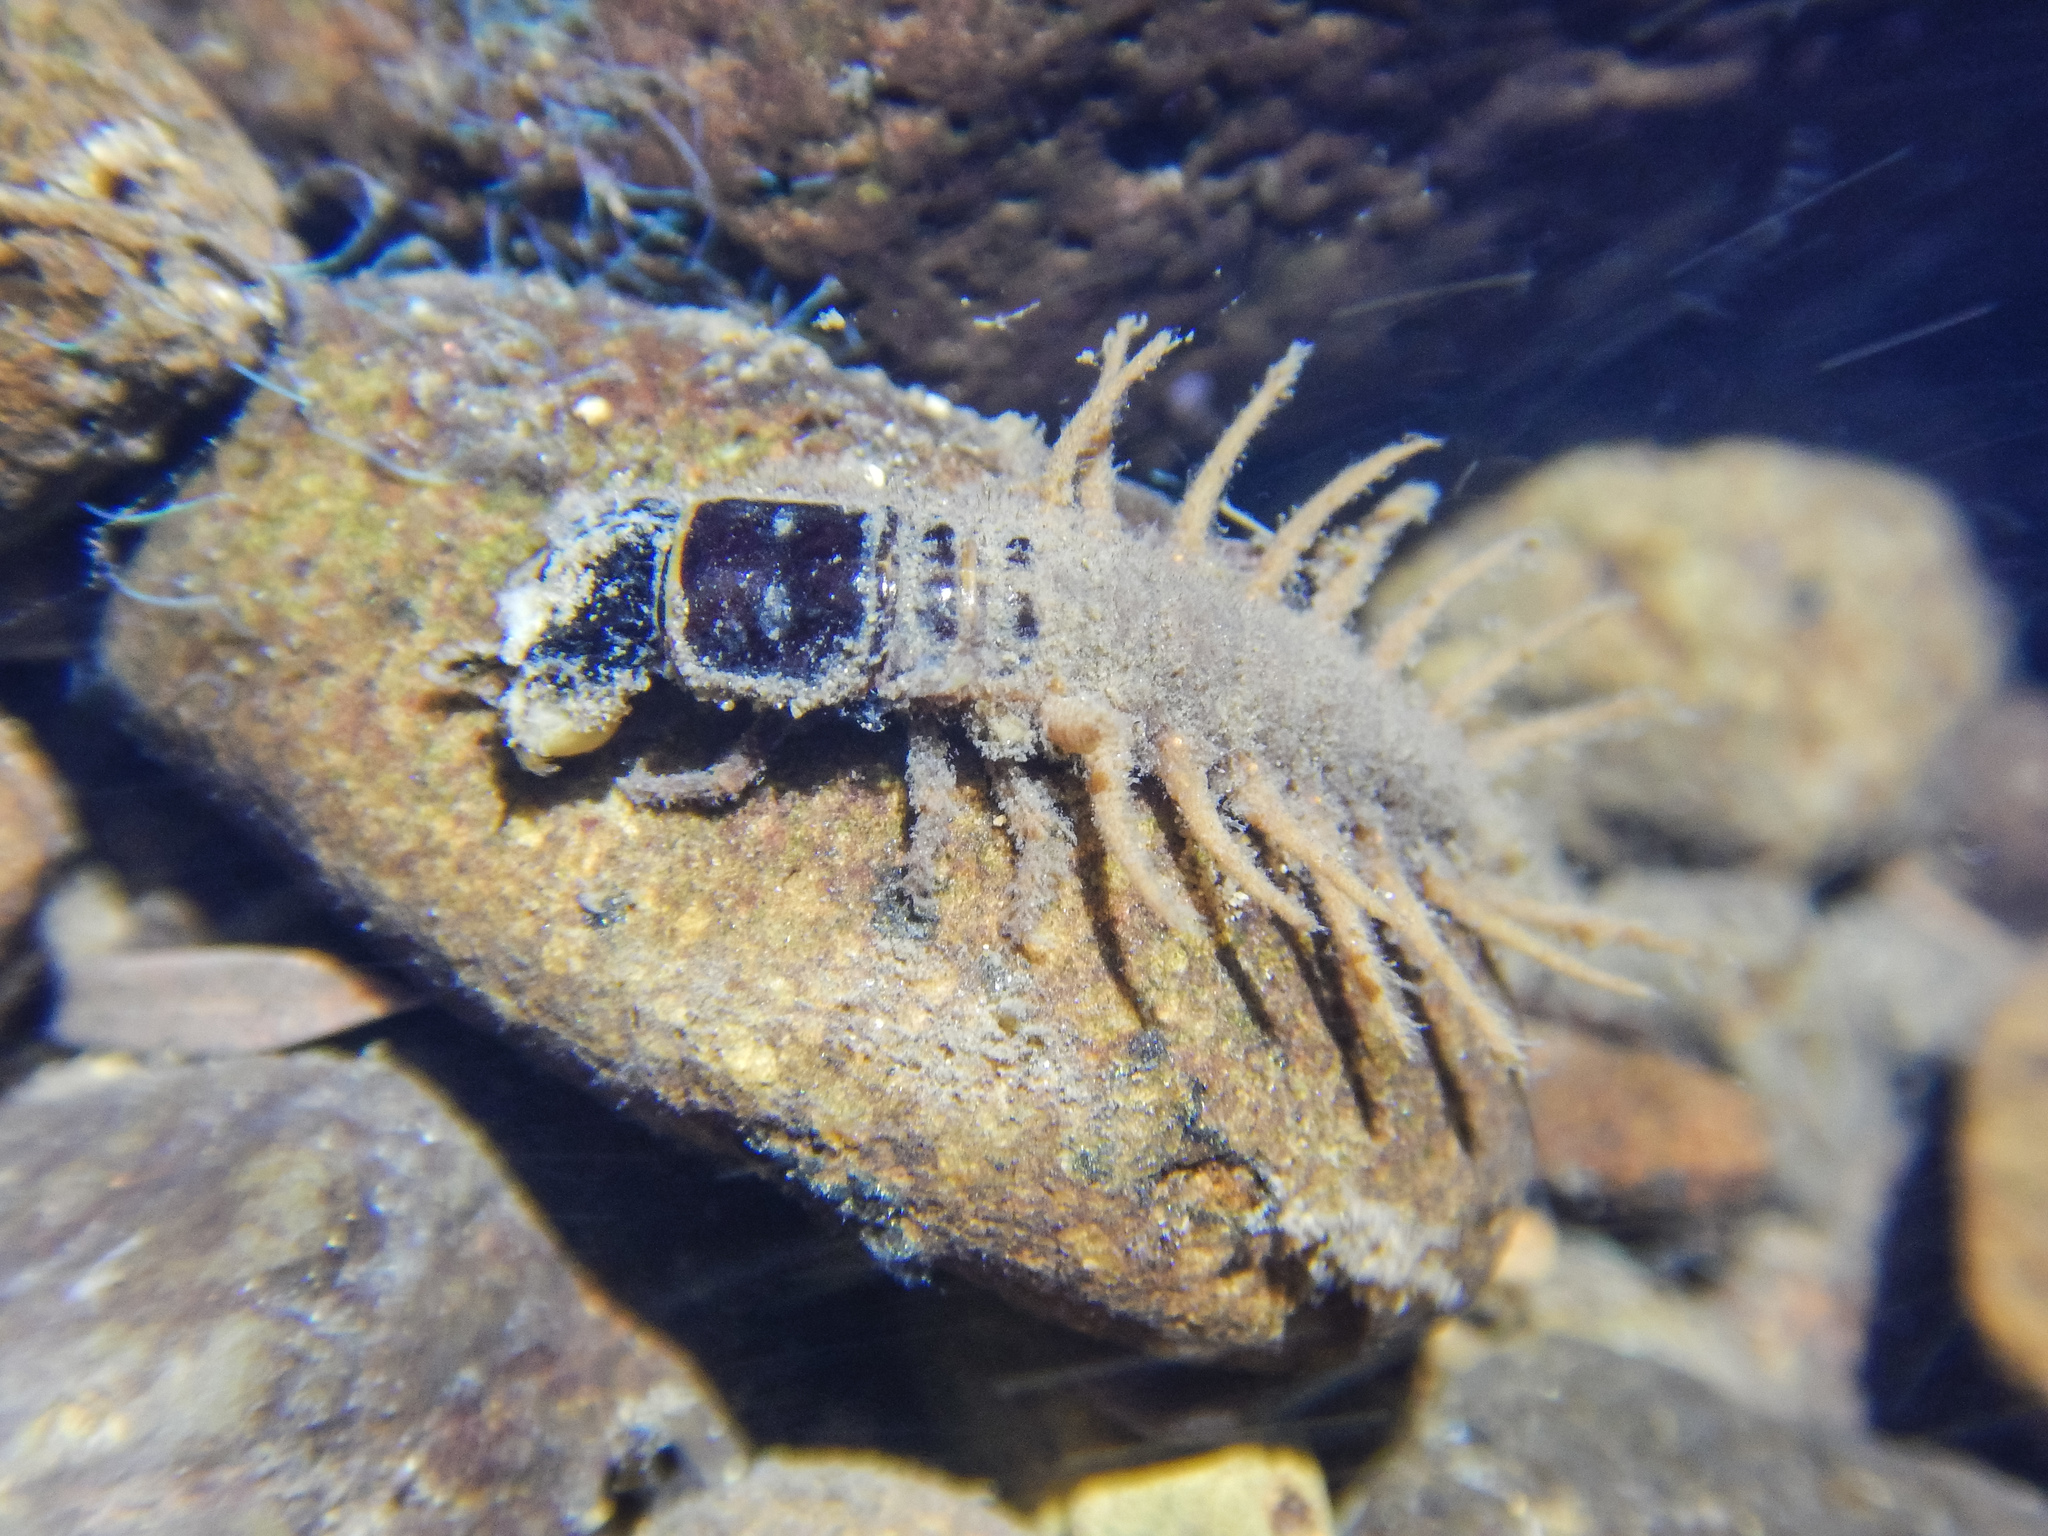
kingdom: Animalia
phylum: Arthropoda
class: Insecta
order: Megaloptera
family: Corydalidae
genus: Archichauliodes
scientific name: Archichauliodes diversus
